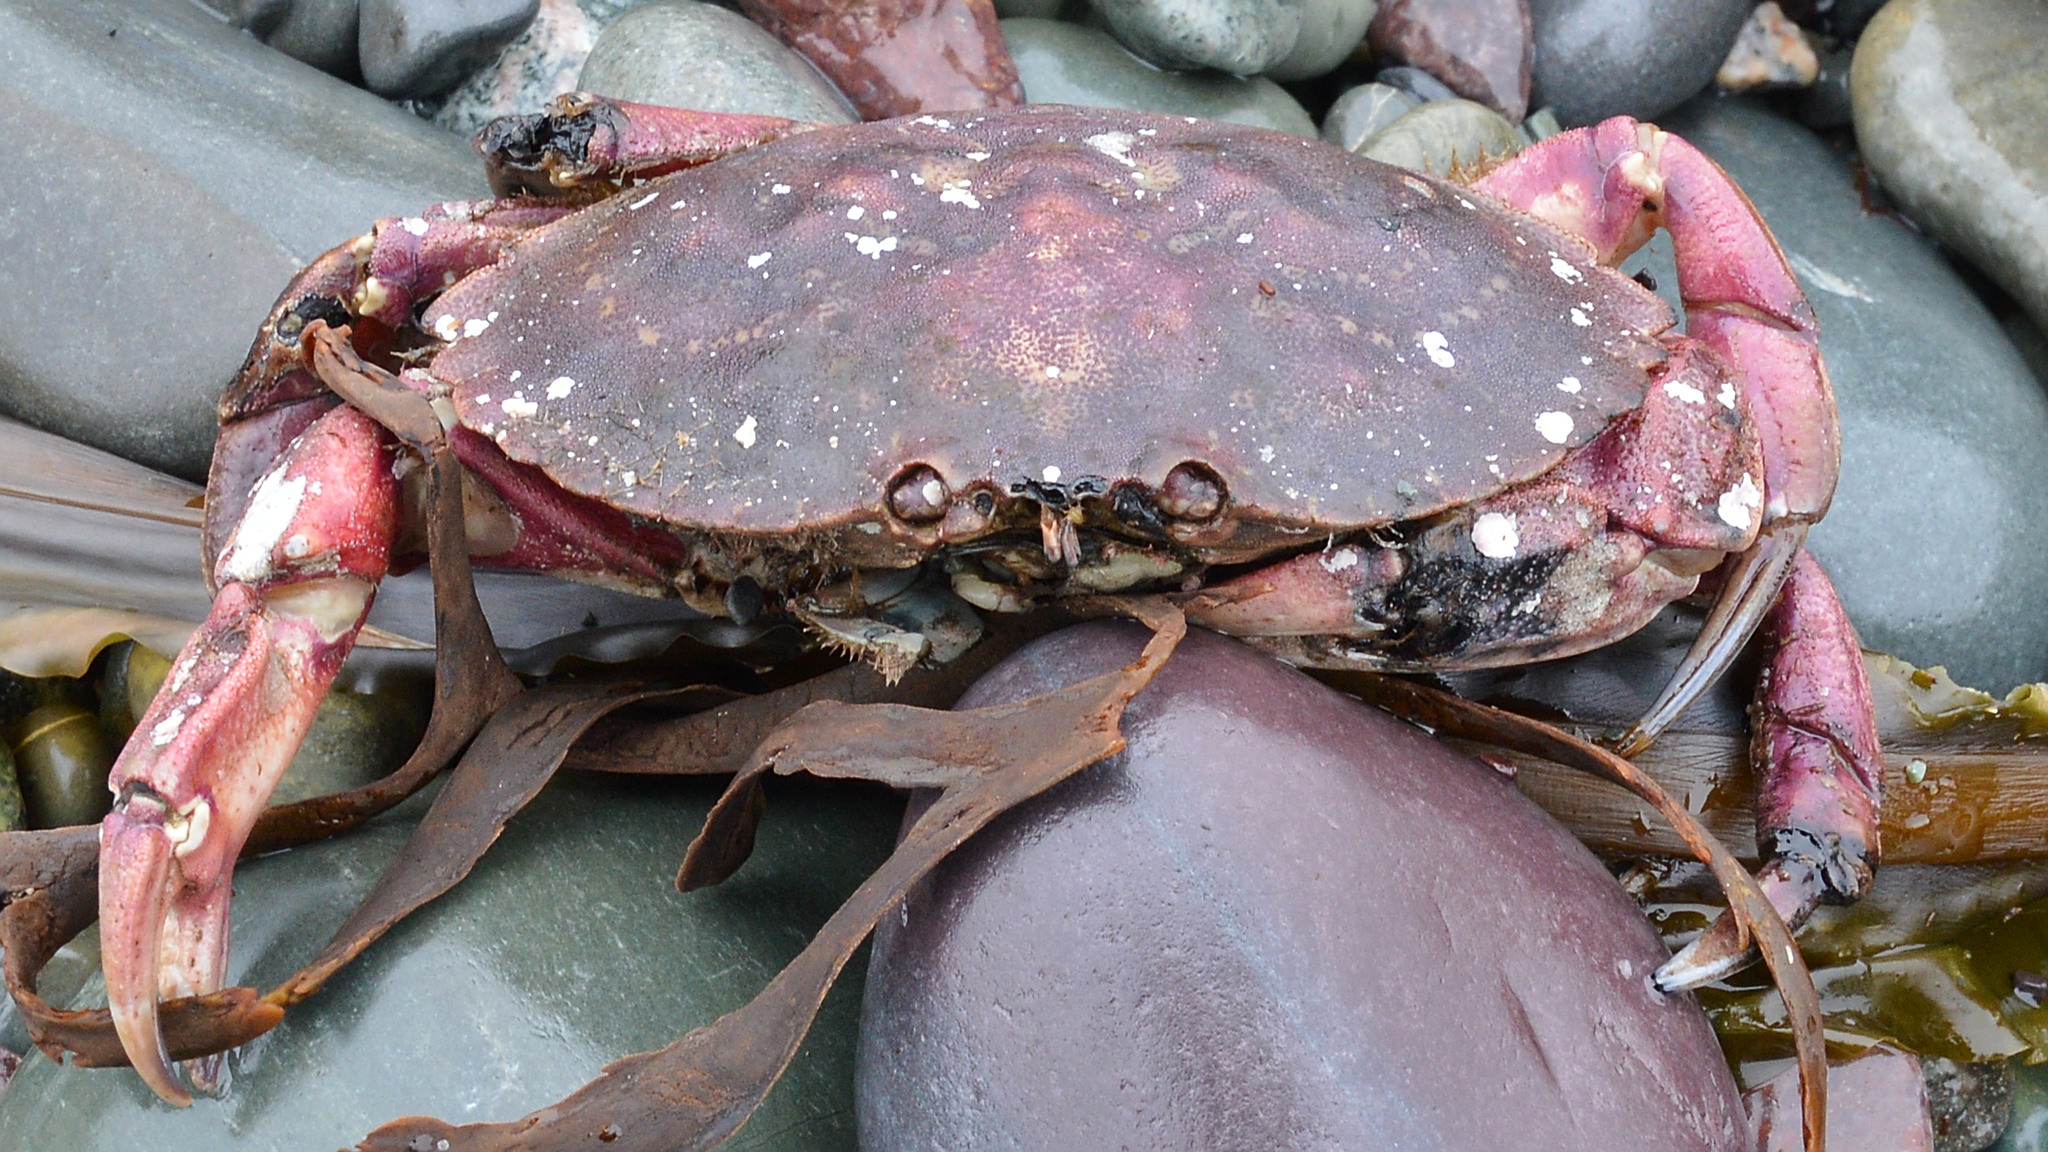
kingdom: Animalia
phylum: Arthropoda
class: Malacostraca
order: Decapoda
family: Cancridae
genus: Cancer
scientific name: Cancer irroratus
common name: Atlantic rock crab
